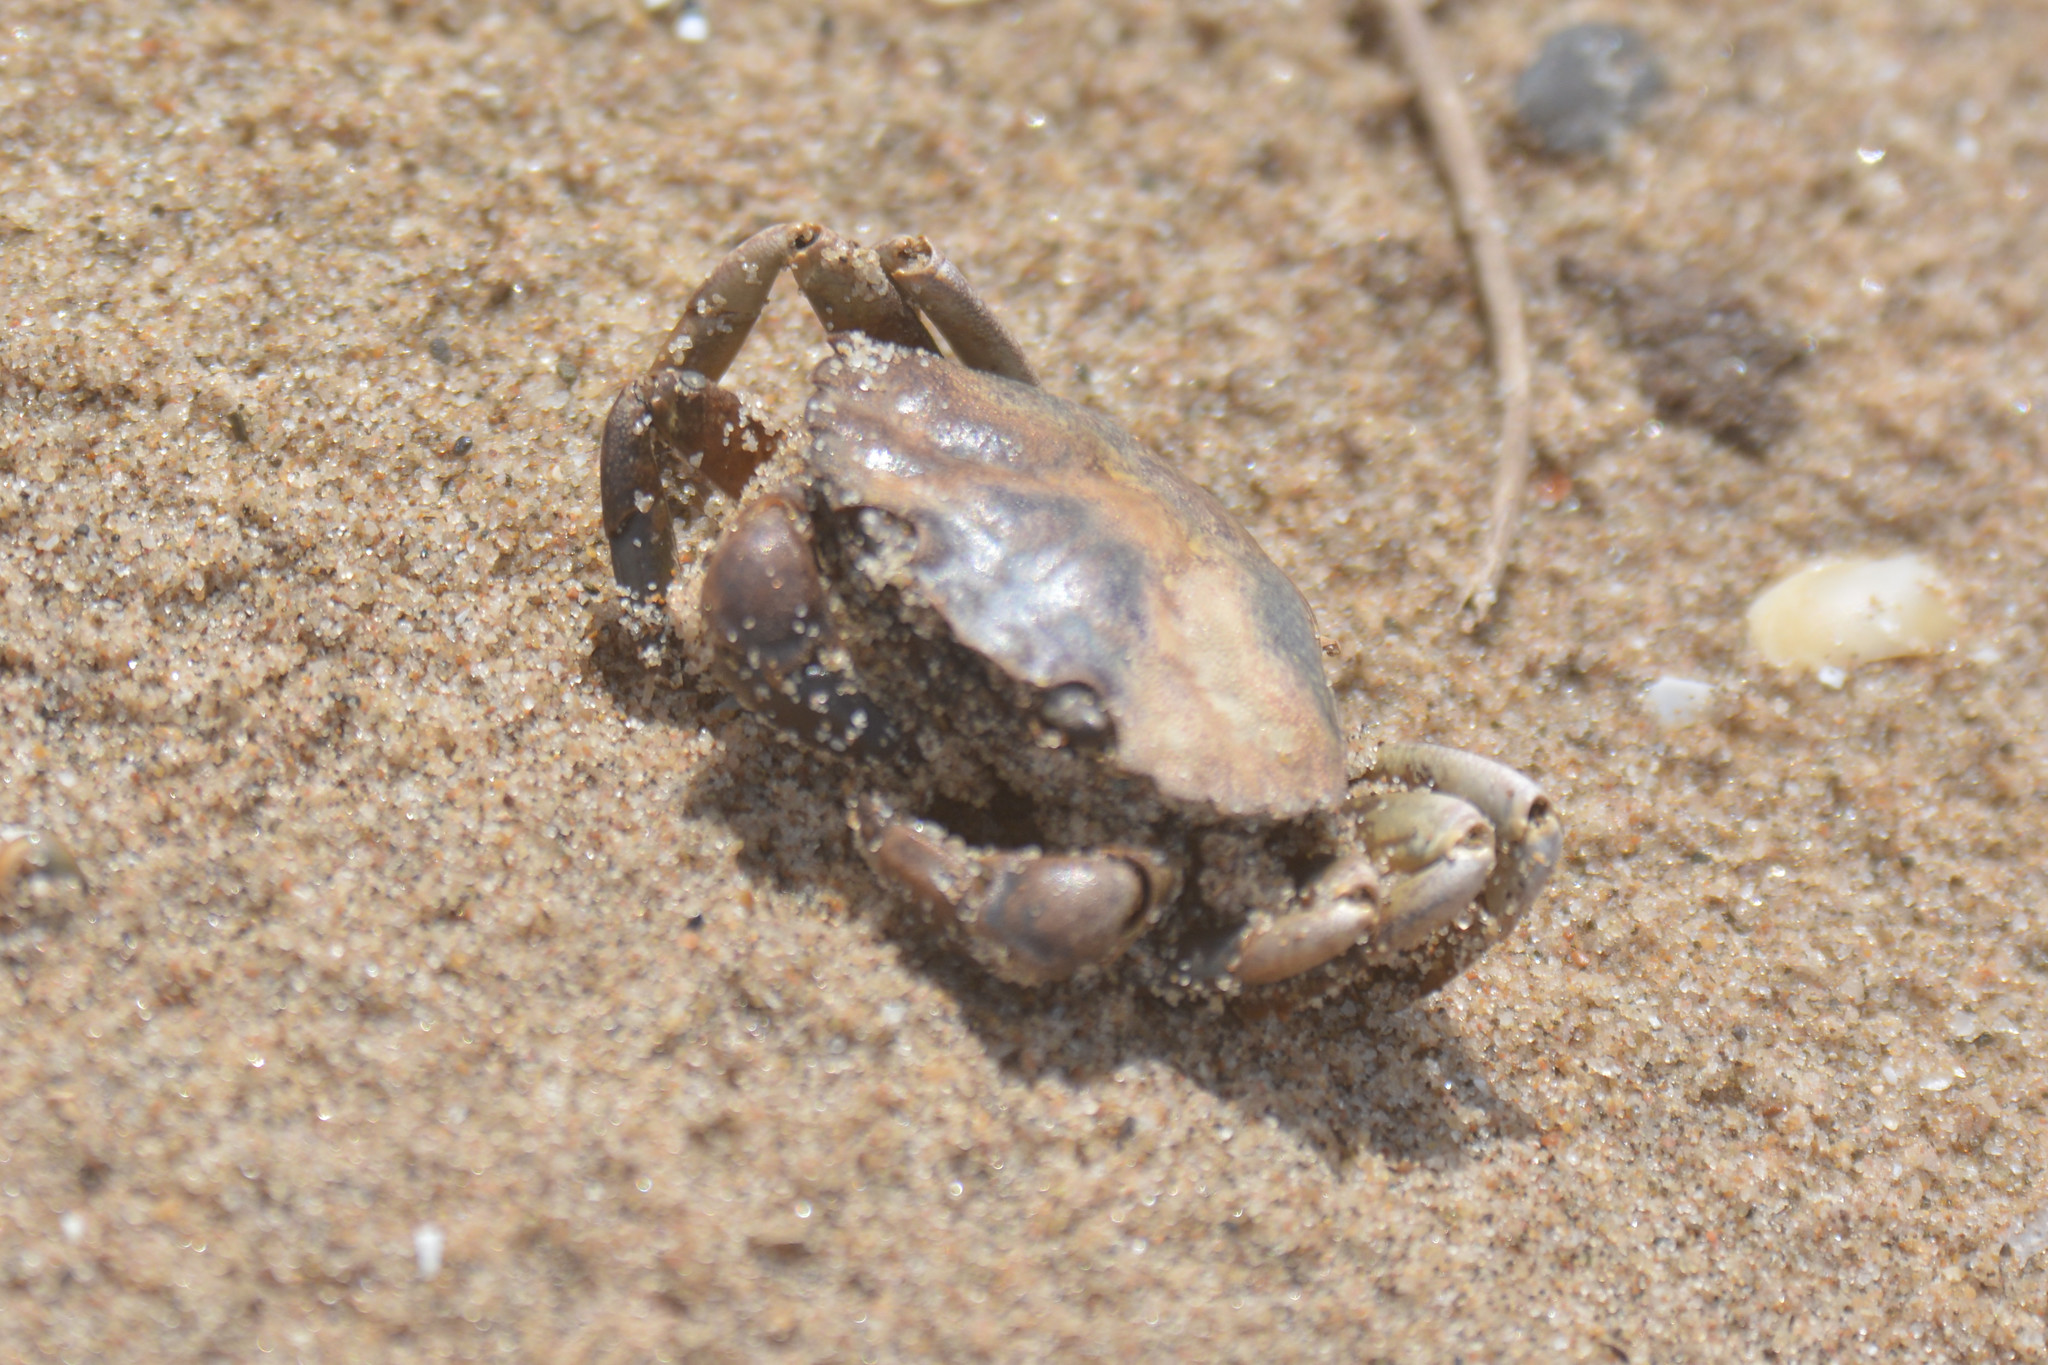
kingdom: Animalia
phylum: Arthropoda
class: Malacostraca
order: Decapoda
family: Carcinidae
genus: Carcinus
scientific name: Carcinus maenas
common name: European green crab
